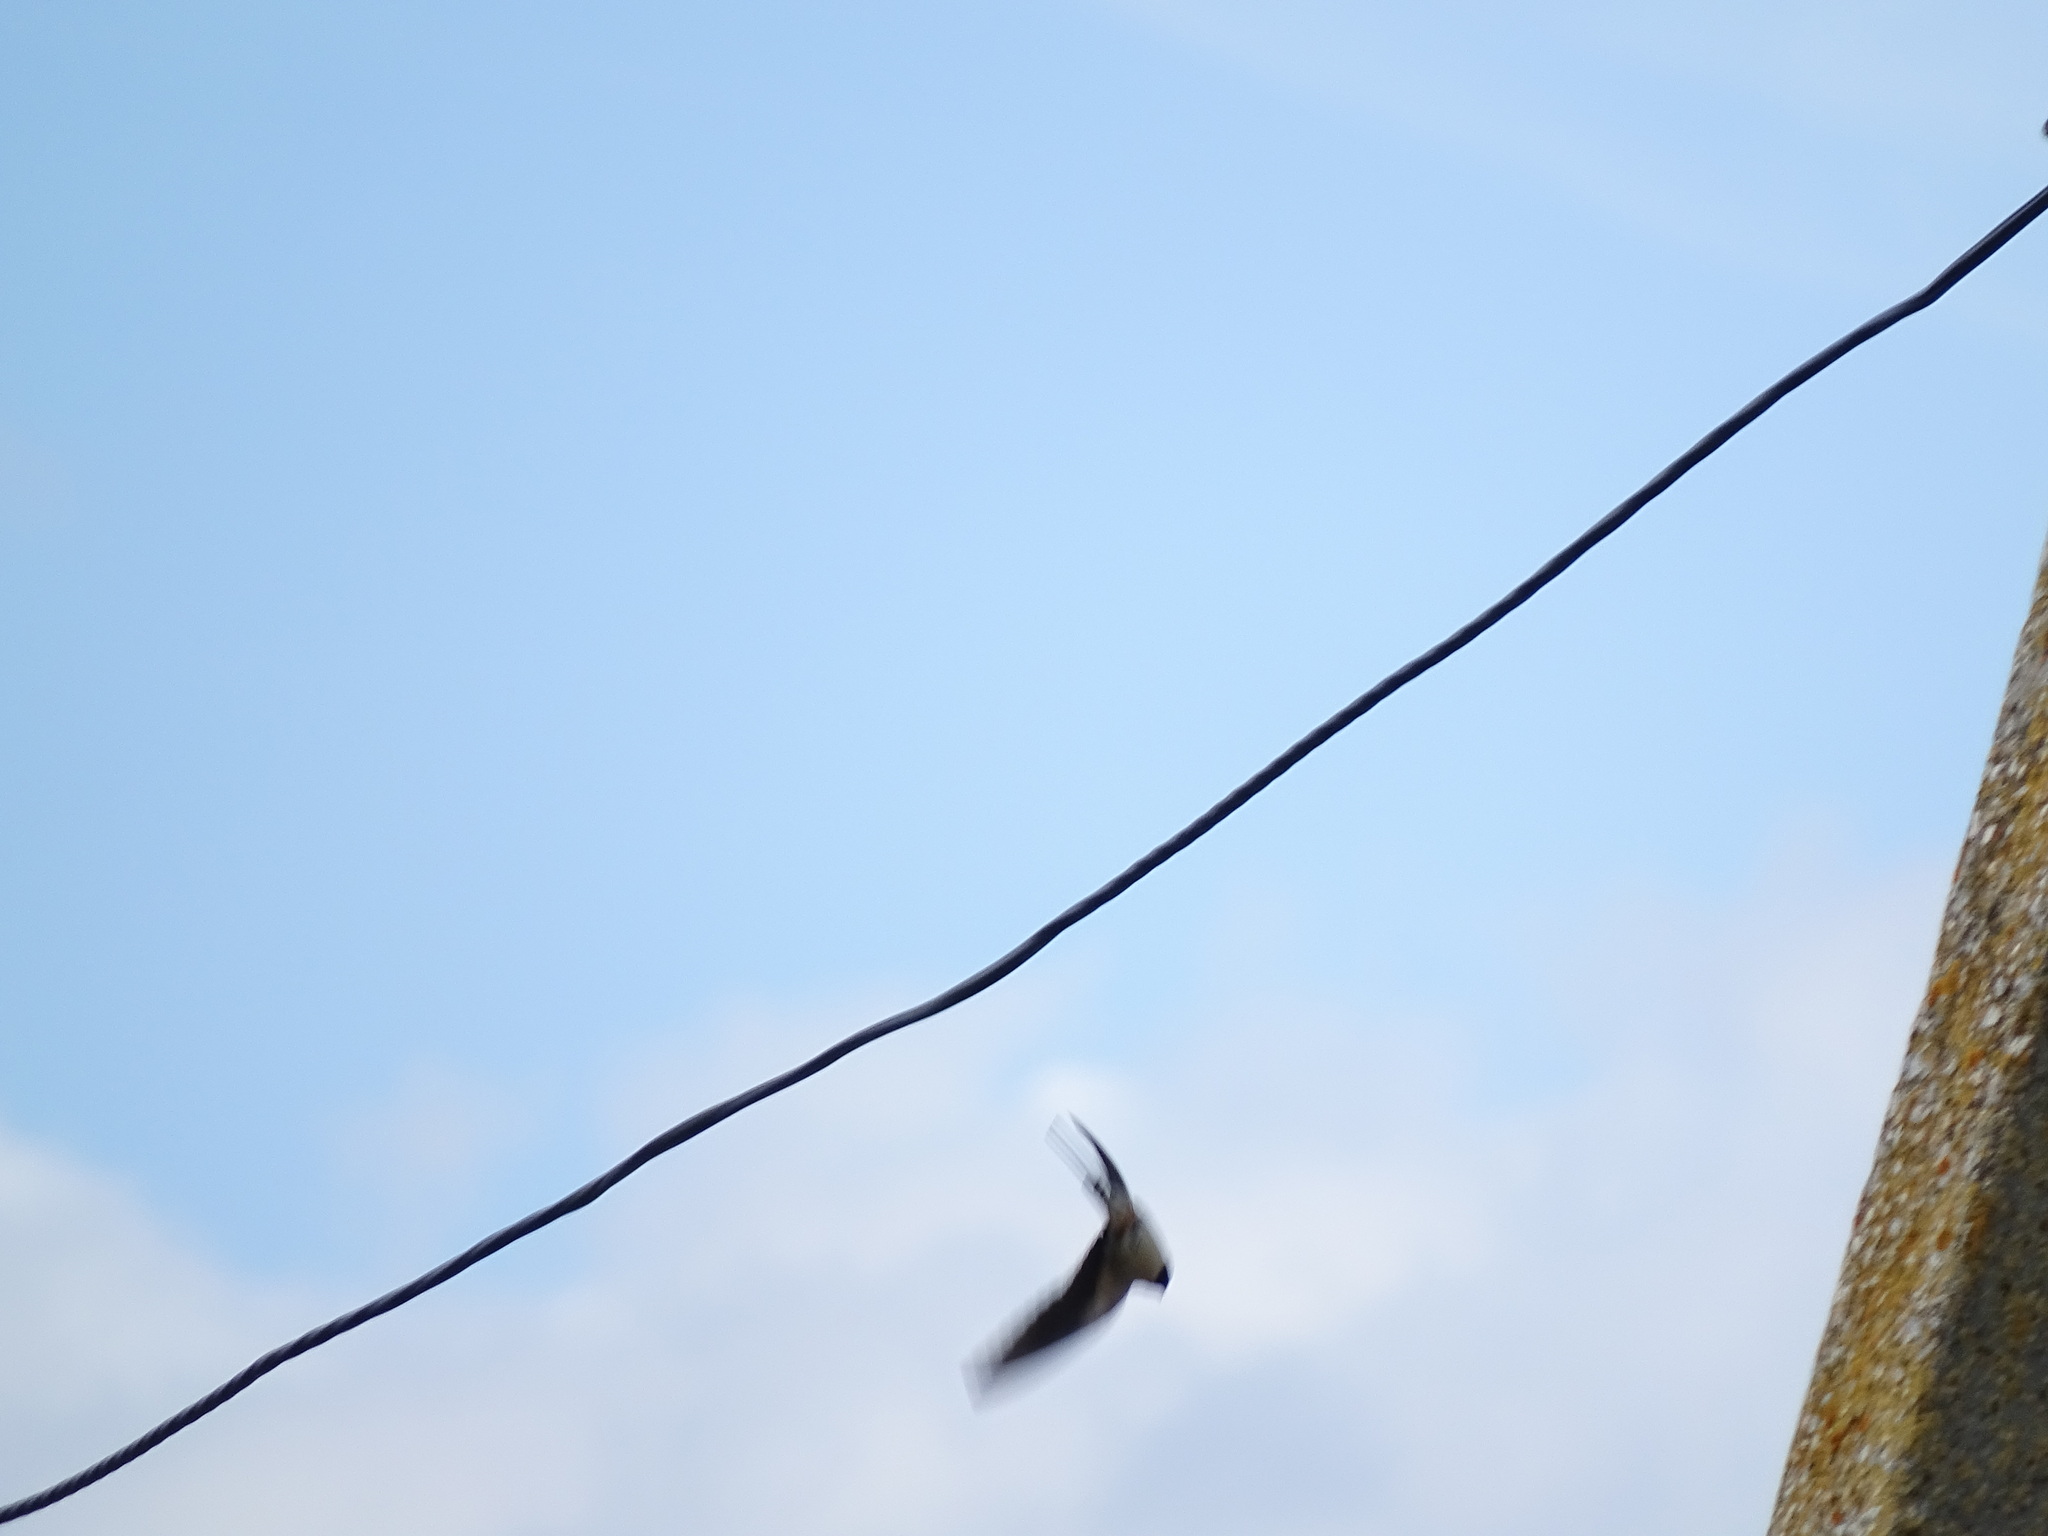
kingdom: Animalia
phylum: Chordata
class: Aves
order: Passeriformes
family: Hirundinidae
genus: Hirundo
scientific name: Hirundo rustica
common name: Barn swallow
